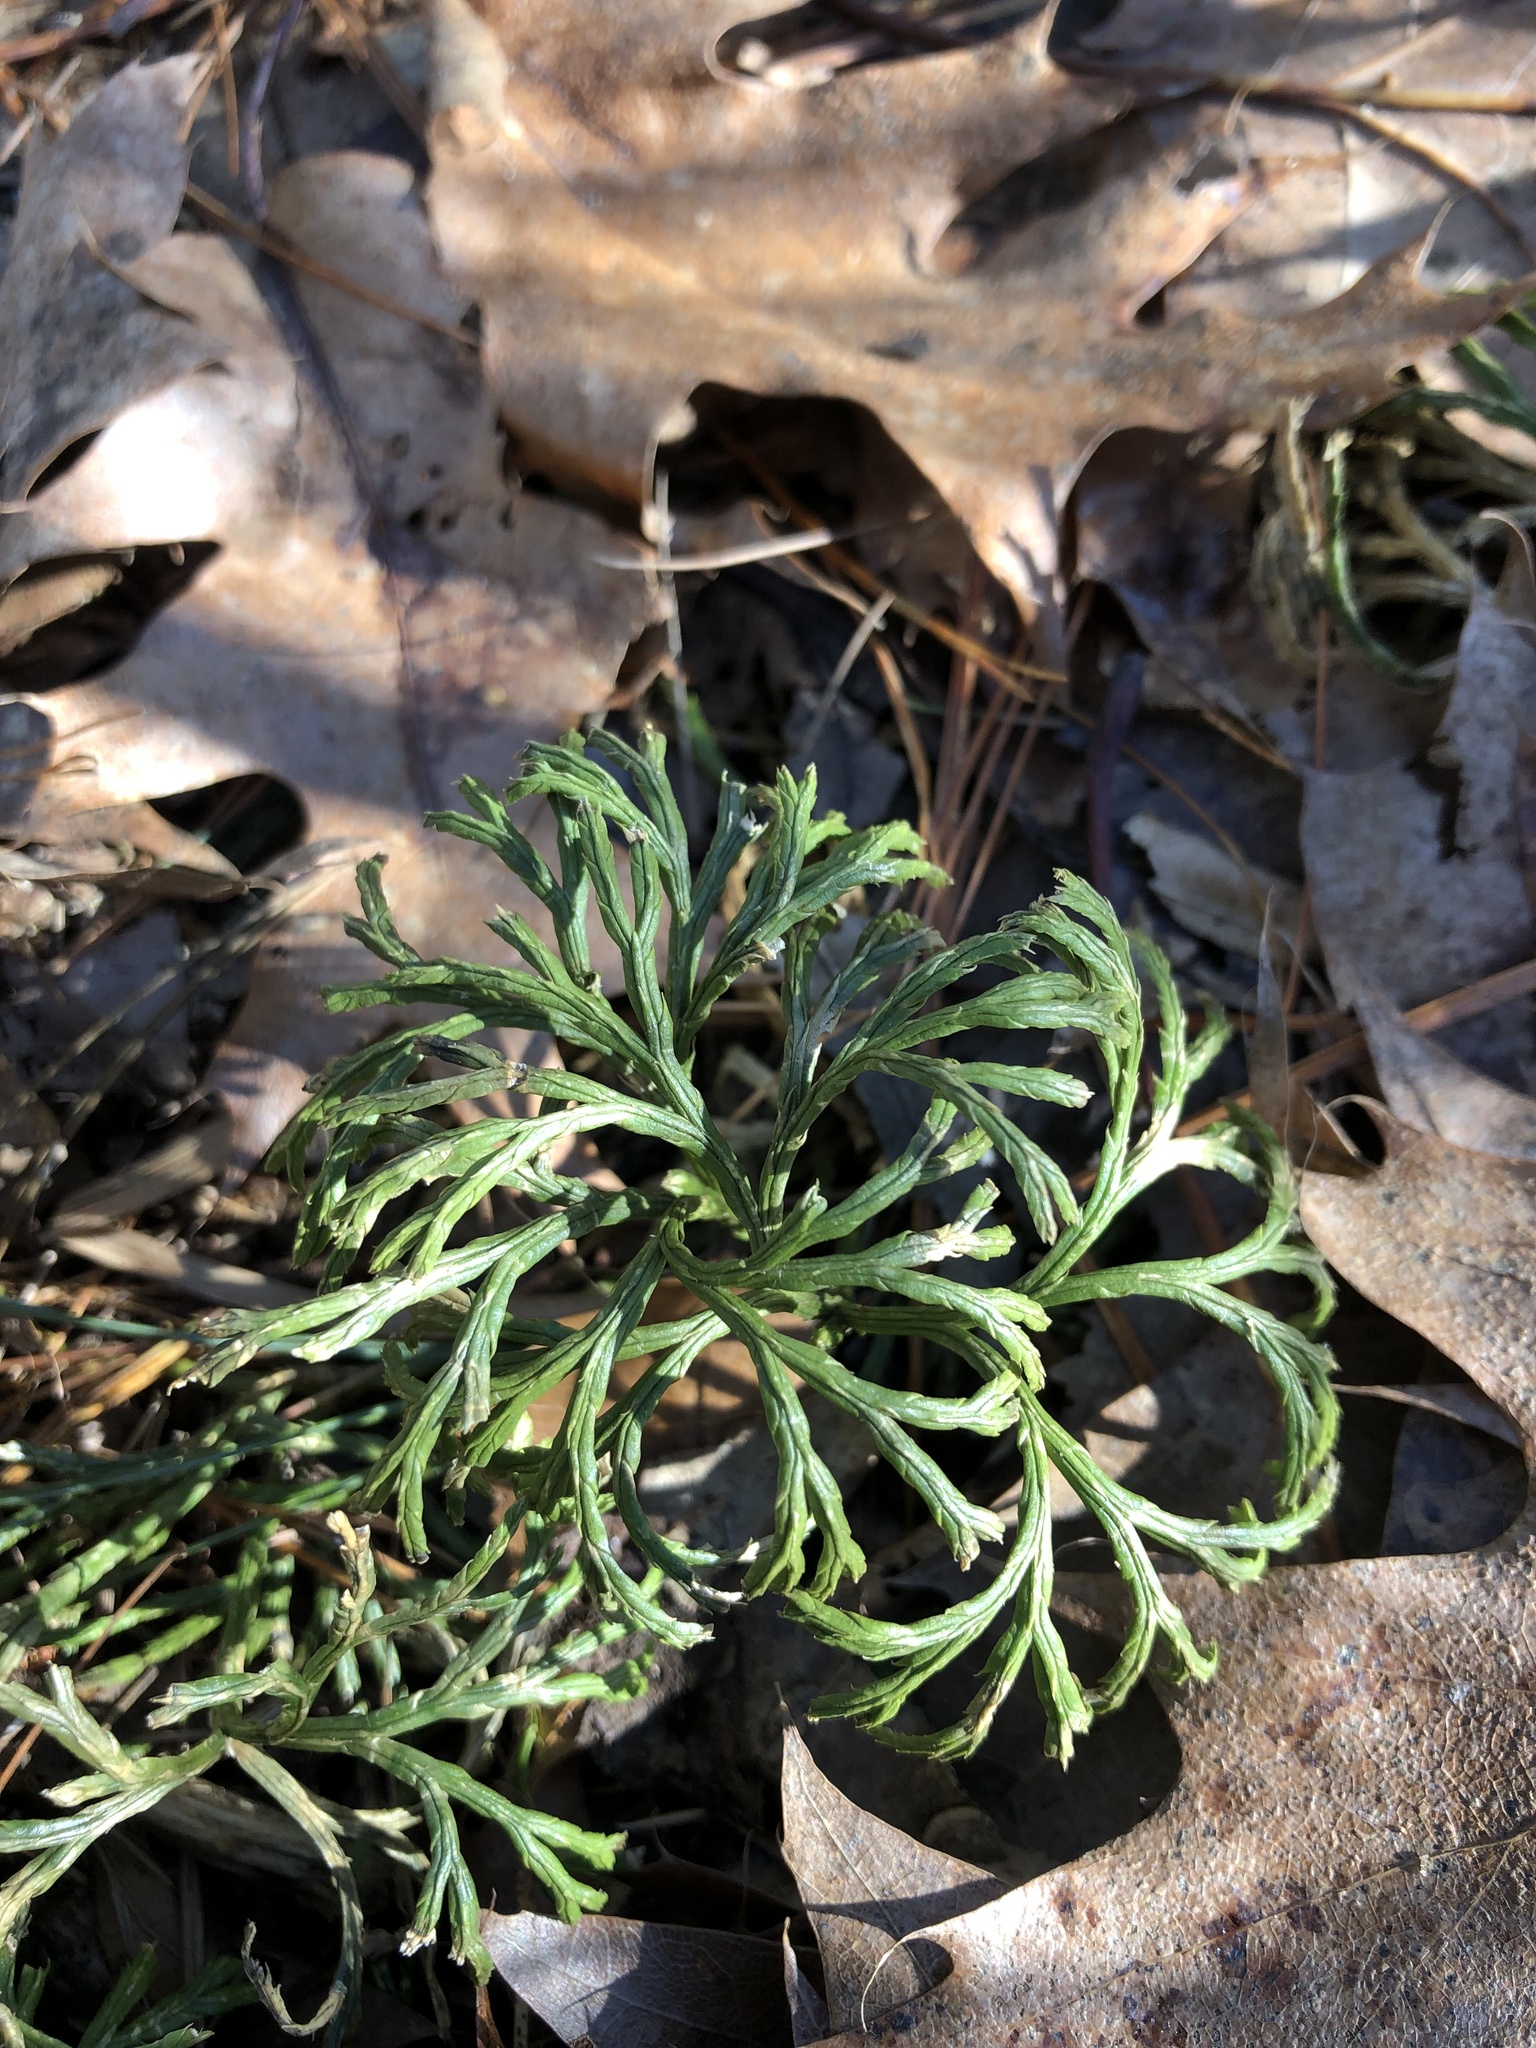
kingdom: Plantae
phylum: Tracheophyta
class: Lycopodiopsida
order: Lycopodiales
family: Lycopodiaceae
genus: Diphasiastrum
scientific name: Diphasiastrum digitatum
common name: Southern running-pine
